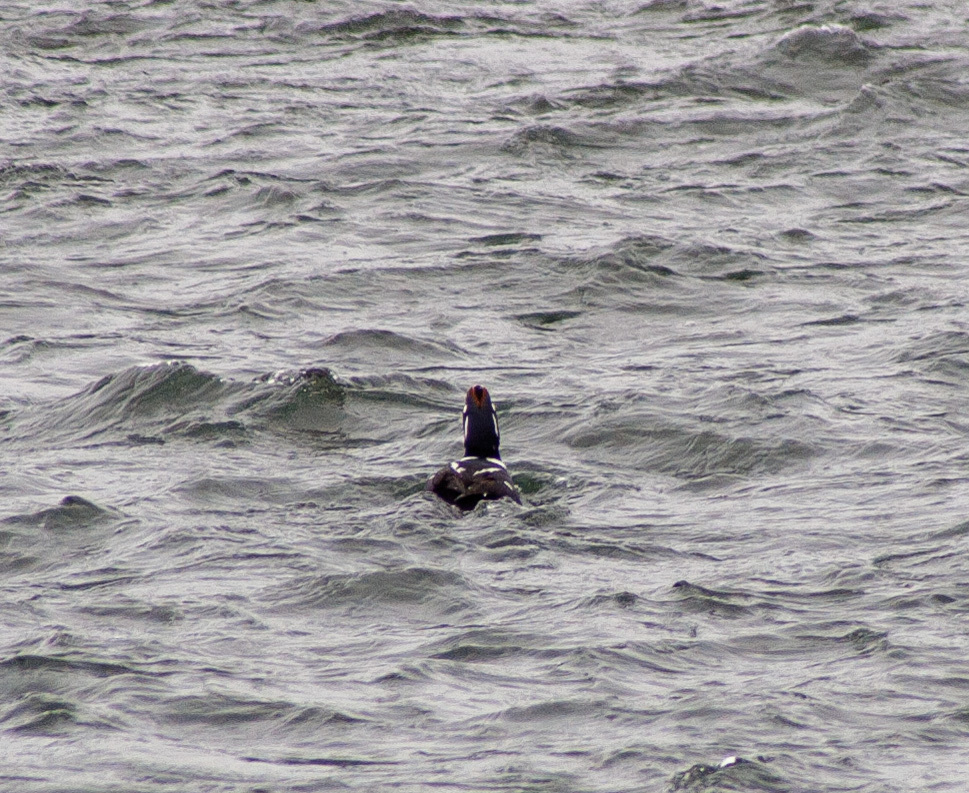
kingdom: Animalia
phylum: Chordata
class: Aves
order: Anseriformes
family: Anatidae
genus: Histrionicus
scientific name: Histrionicus histrionicus
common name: Harlequin duck
